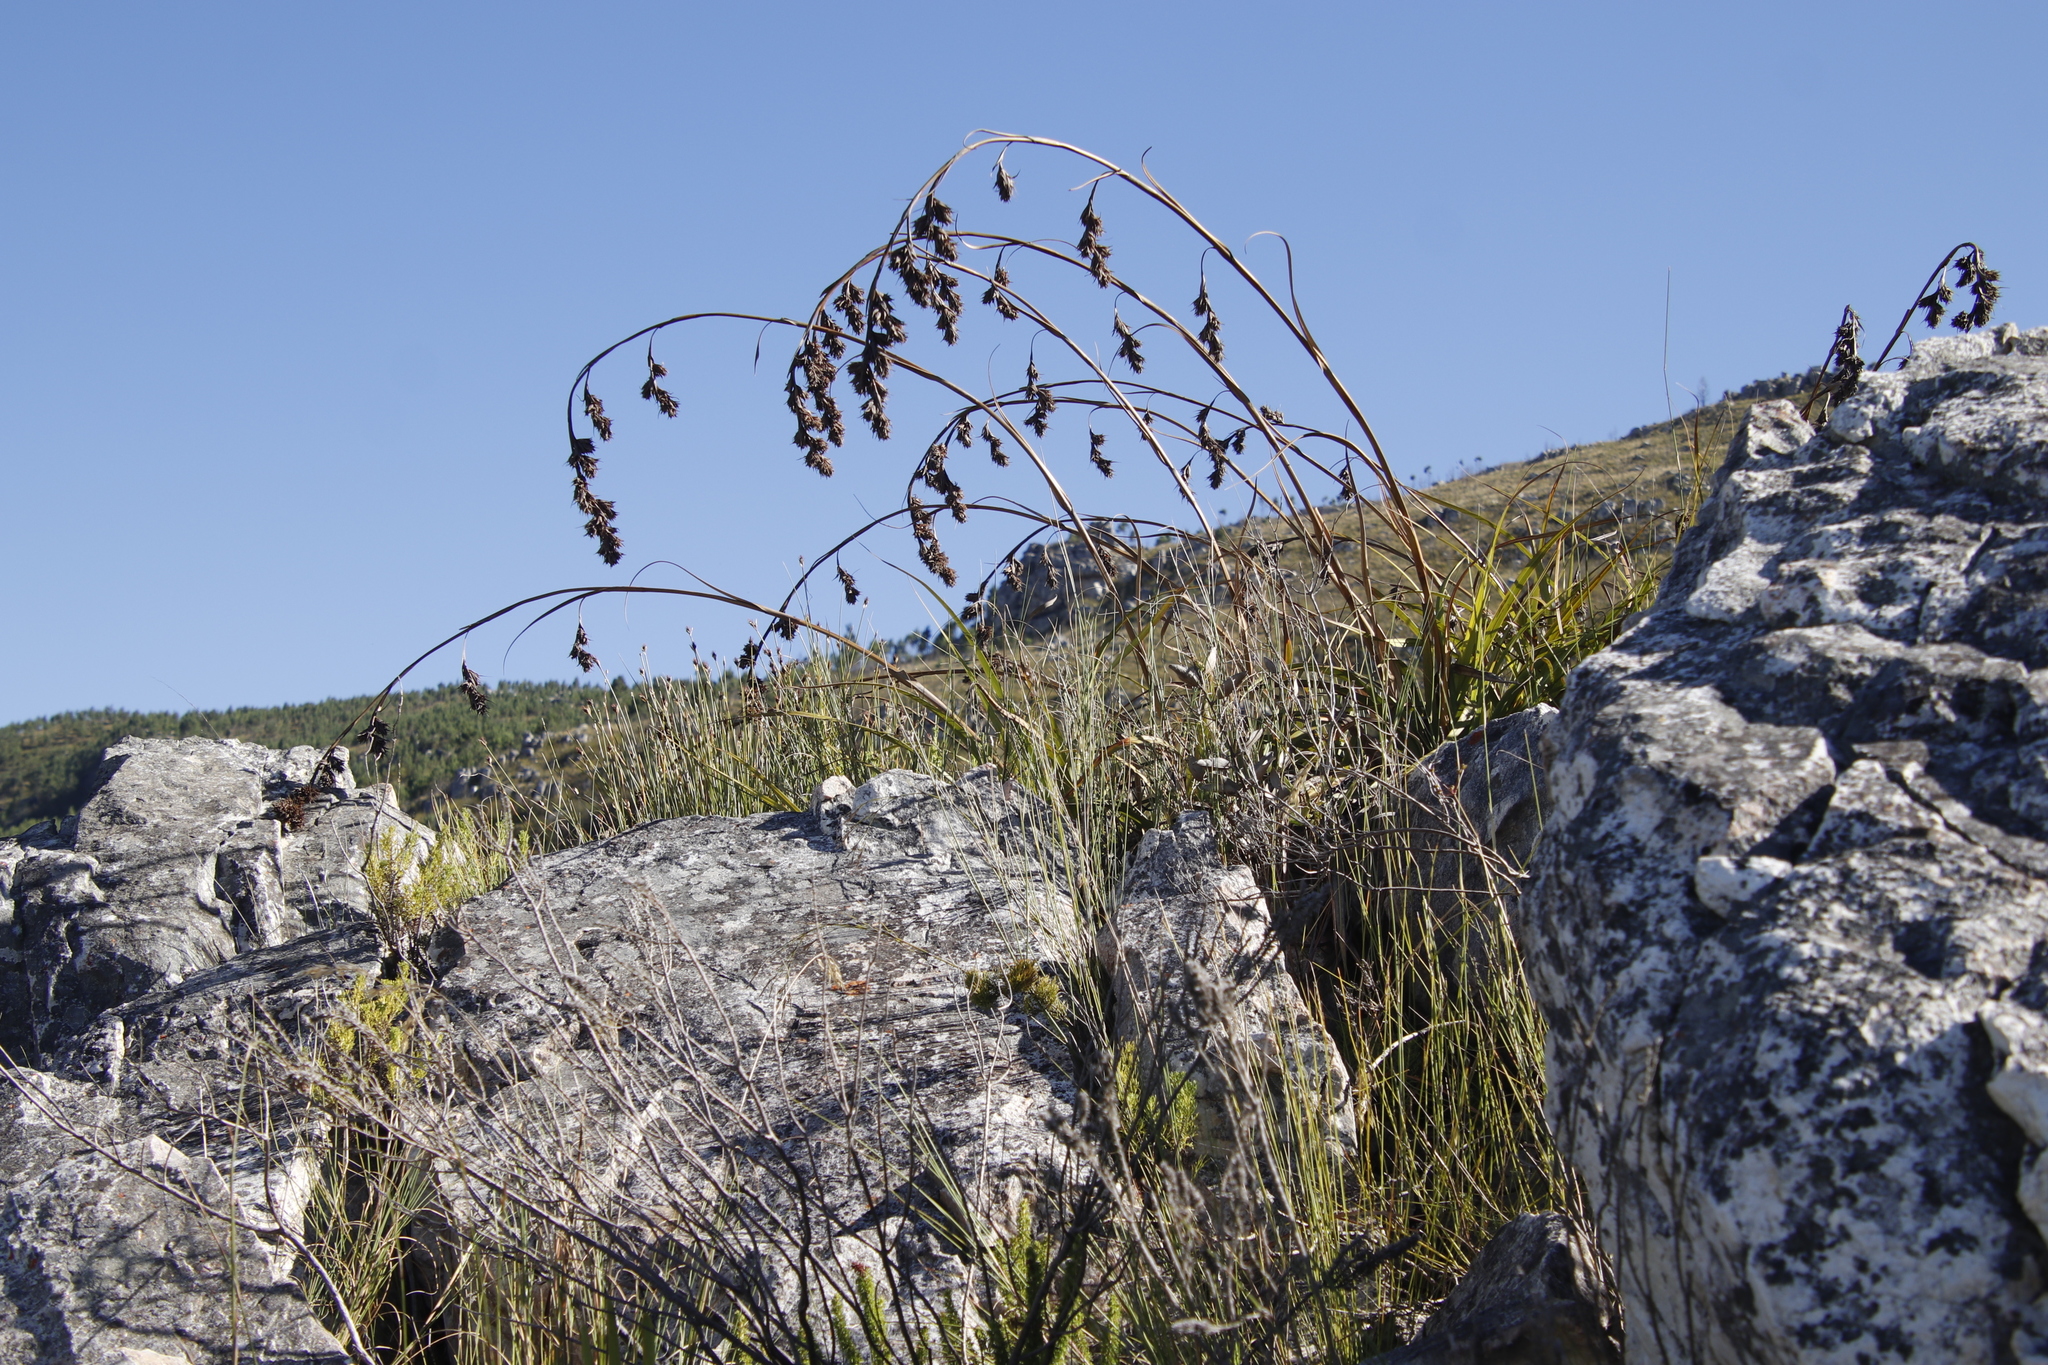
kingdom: Plantae
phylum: Tracheophyta
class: Liliopsida
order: Poales
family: Cyperaceae
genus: Tetraria
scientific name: Tetraria thermalis
